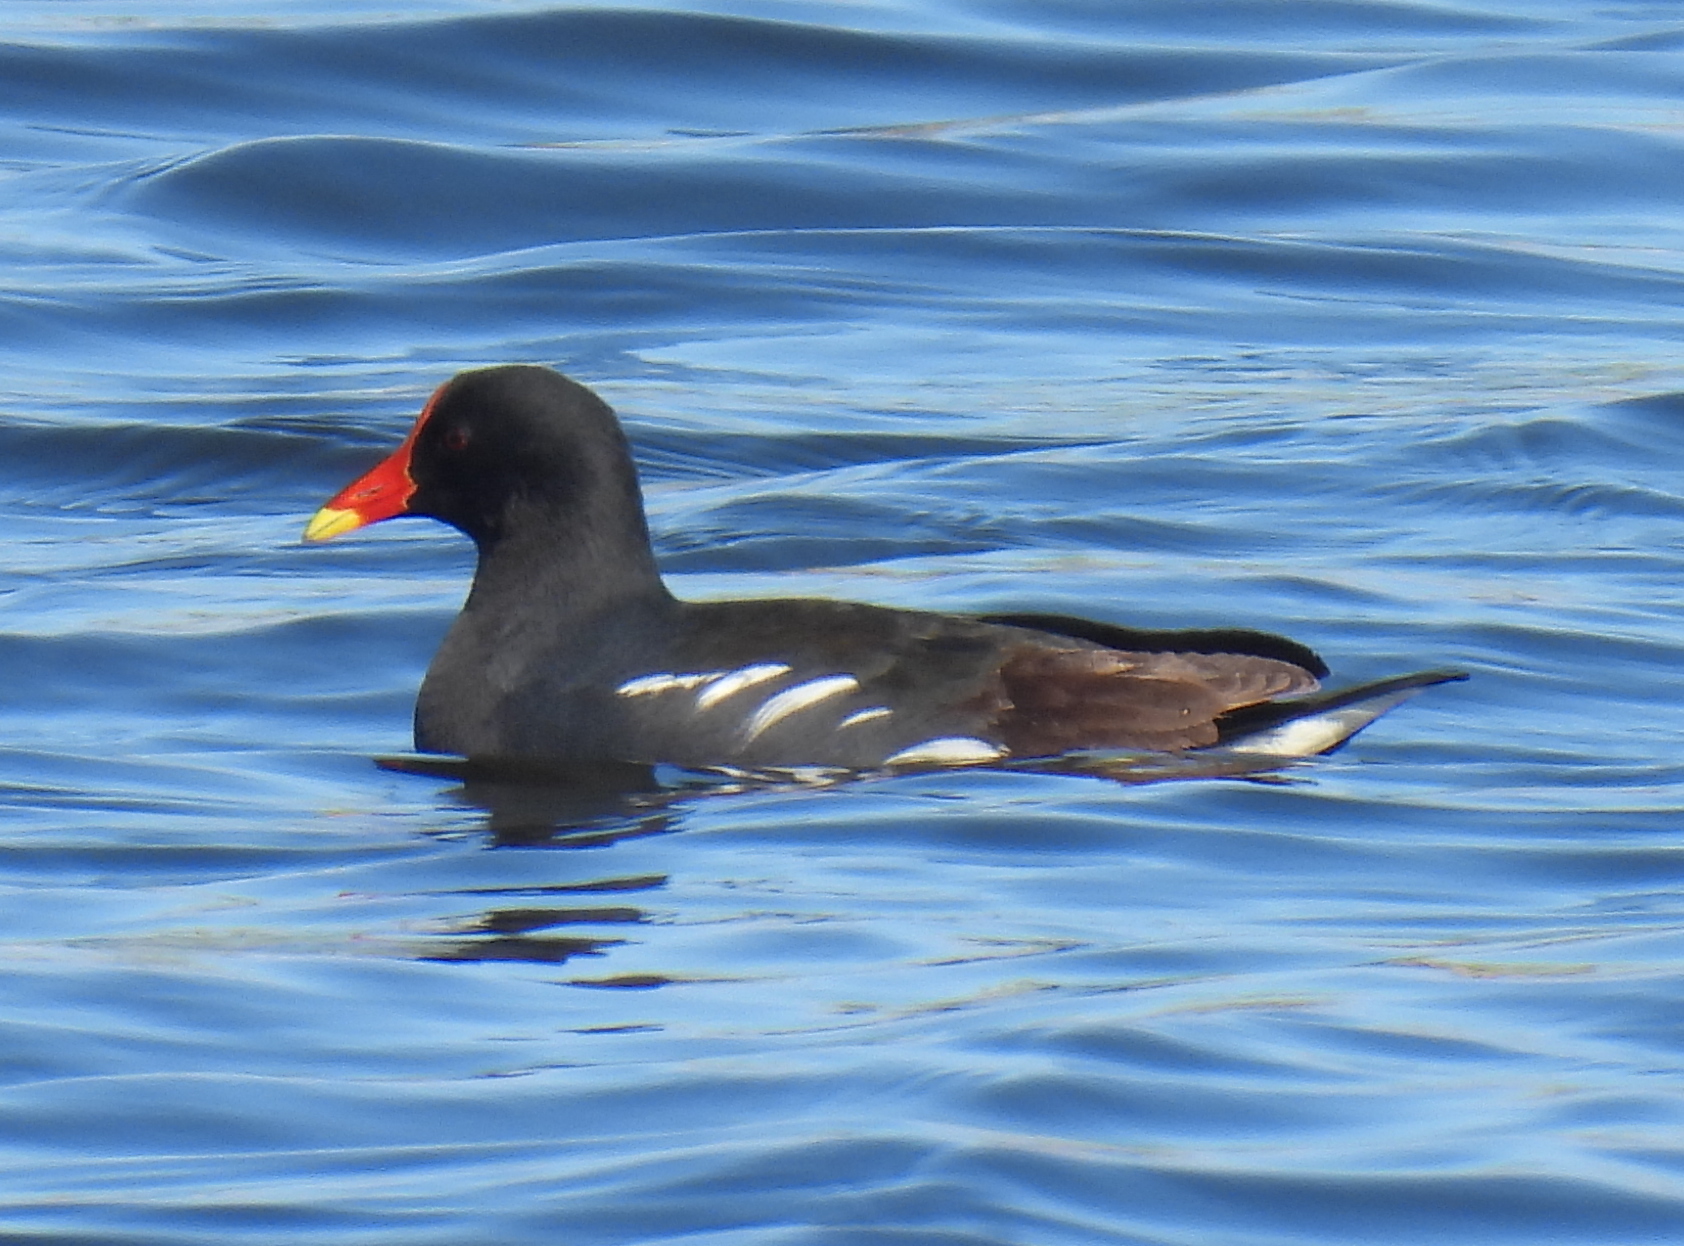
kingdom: Animalia
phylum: Chordata
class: Aves
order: Gruiformes
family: Rallidae
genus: Gallinula
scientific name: Gallinula chloropus
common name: Common moorhen
